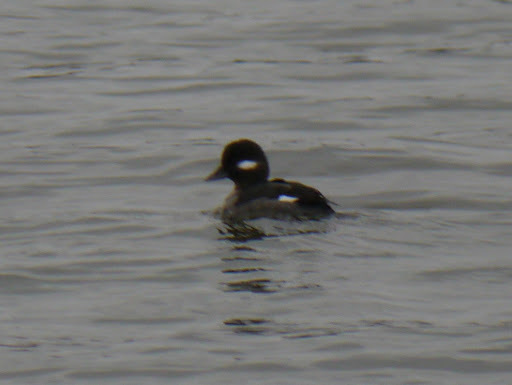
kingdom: Animalia
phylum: Chordata
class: Aves
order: Anseriformes
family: Anatidae
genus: Bucephala
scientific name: Bucephala albeola
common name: Bufflehead
